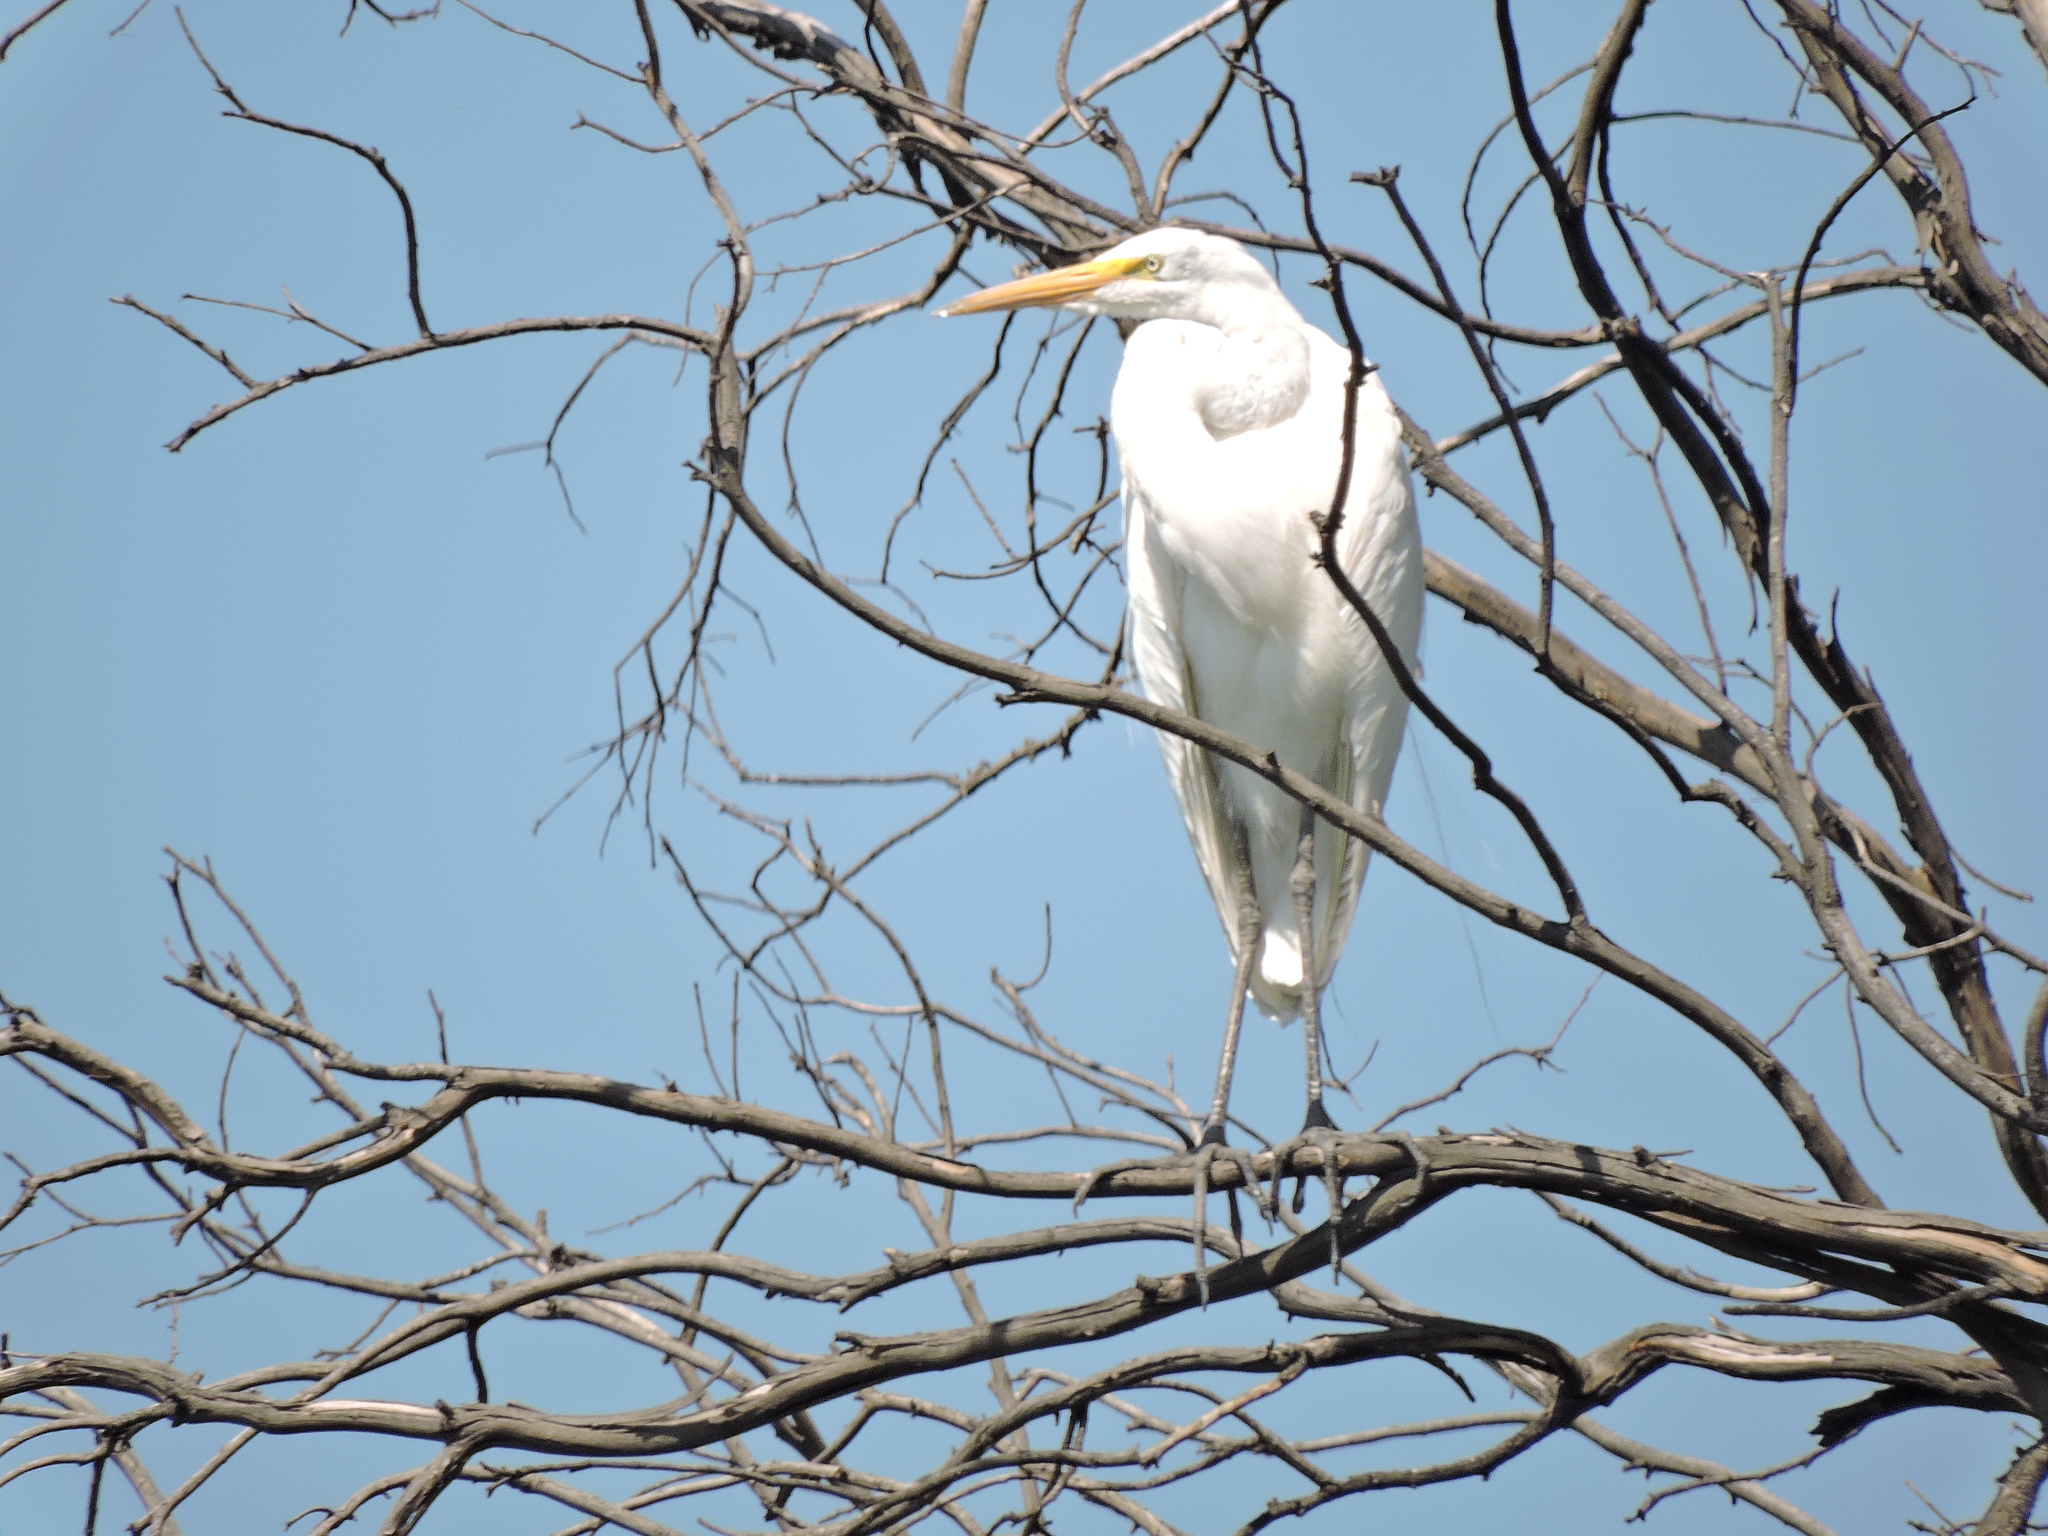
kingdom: Animalia
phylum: Chordata
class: Aves
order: Pelecaniformes
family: Ardeidae
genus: Ardea
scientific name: Ardea alba
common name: Great egret
